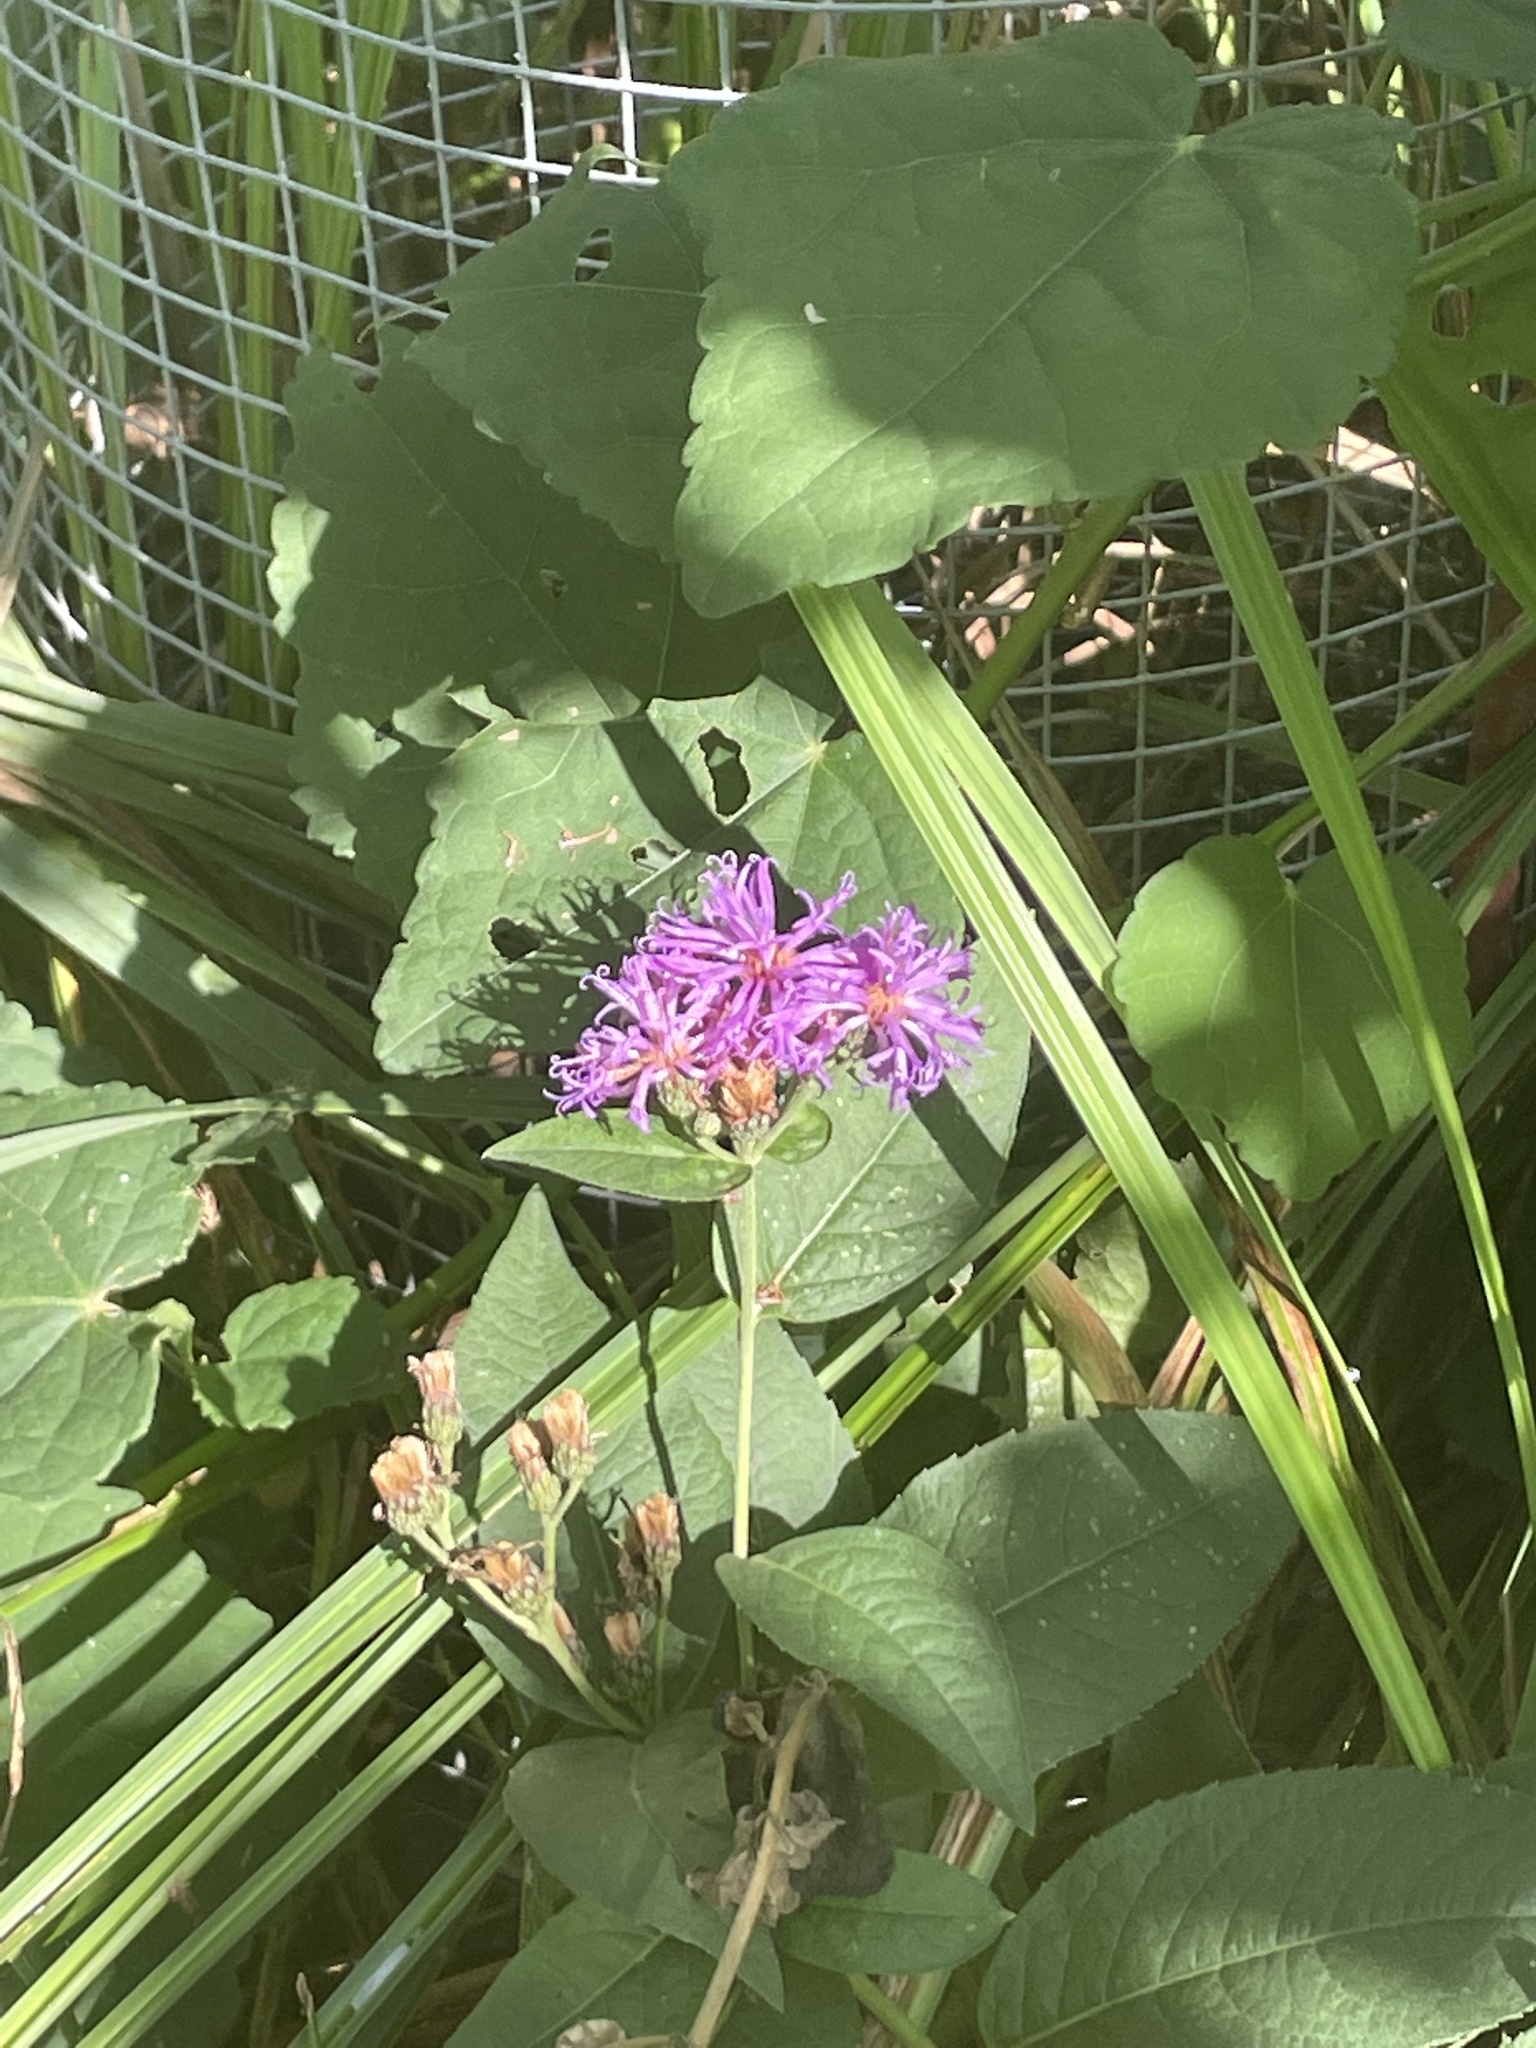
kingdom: Plantae
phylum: Tracheophyta
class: Magnoliopsida
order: Asterales
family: Asteraceae
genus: Vernonia
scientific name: Vernonia baldwinii
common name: Western ironweed
